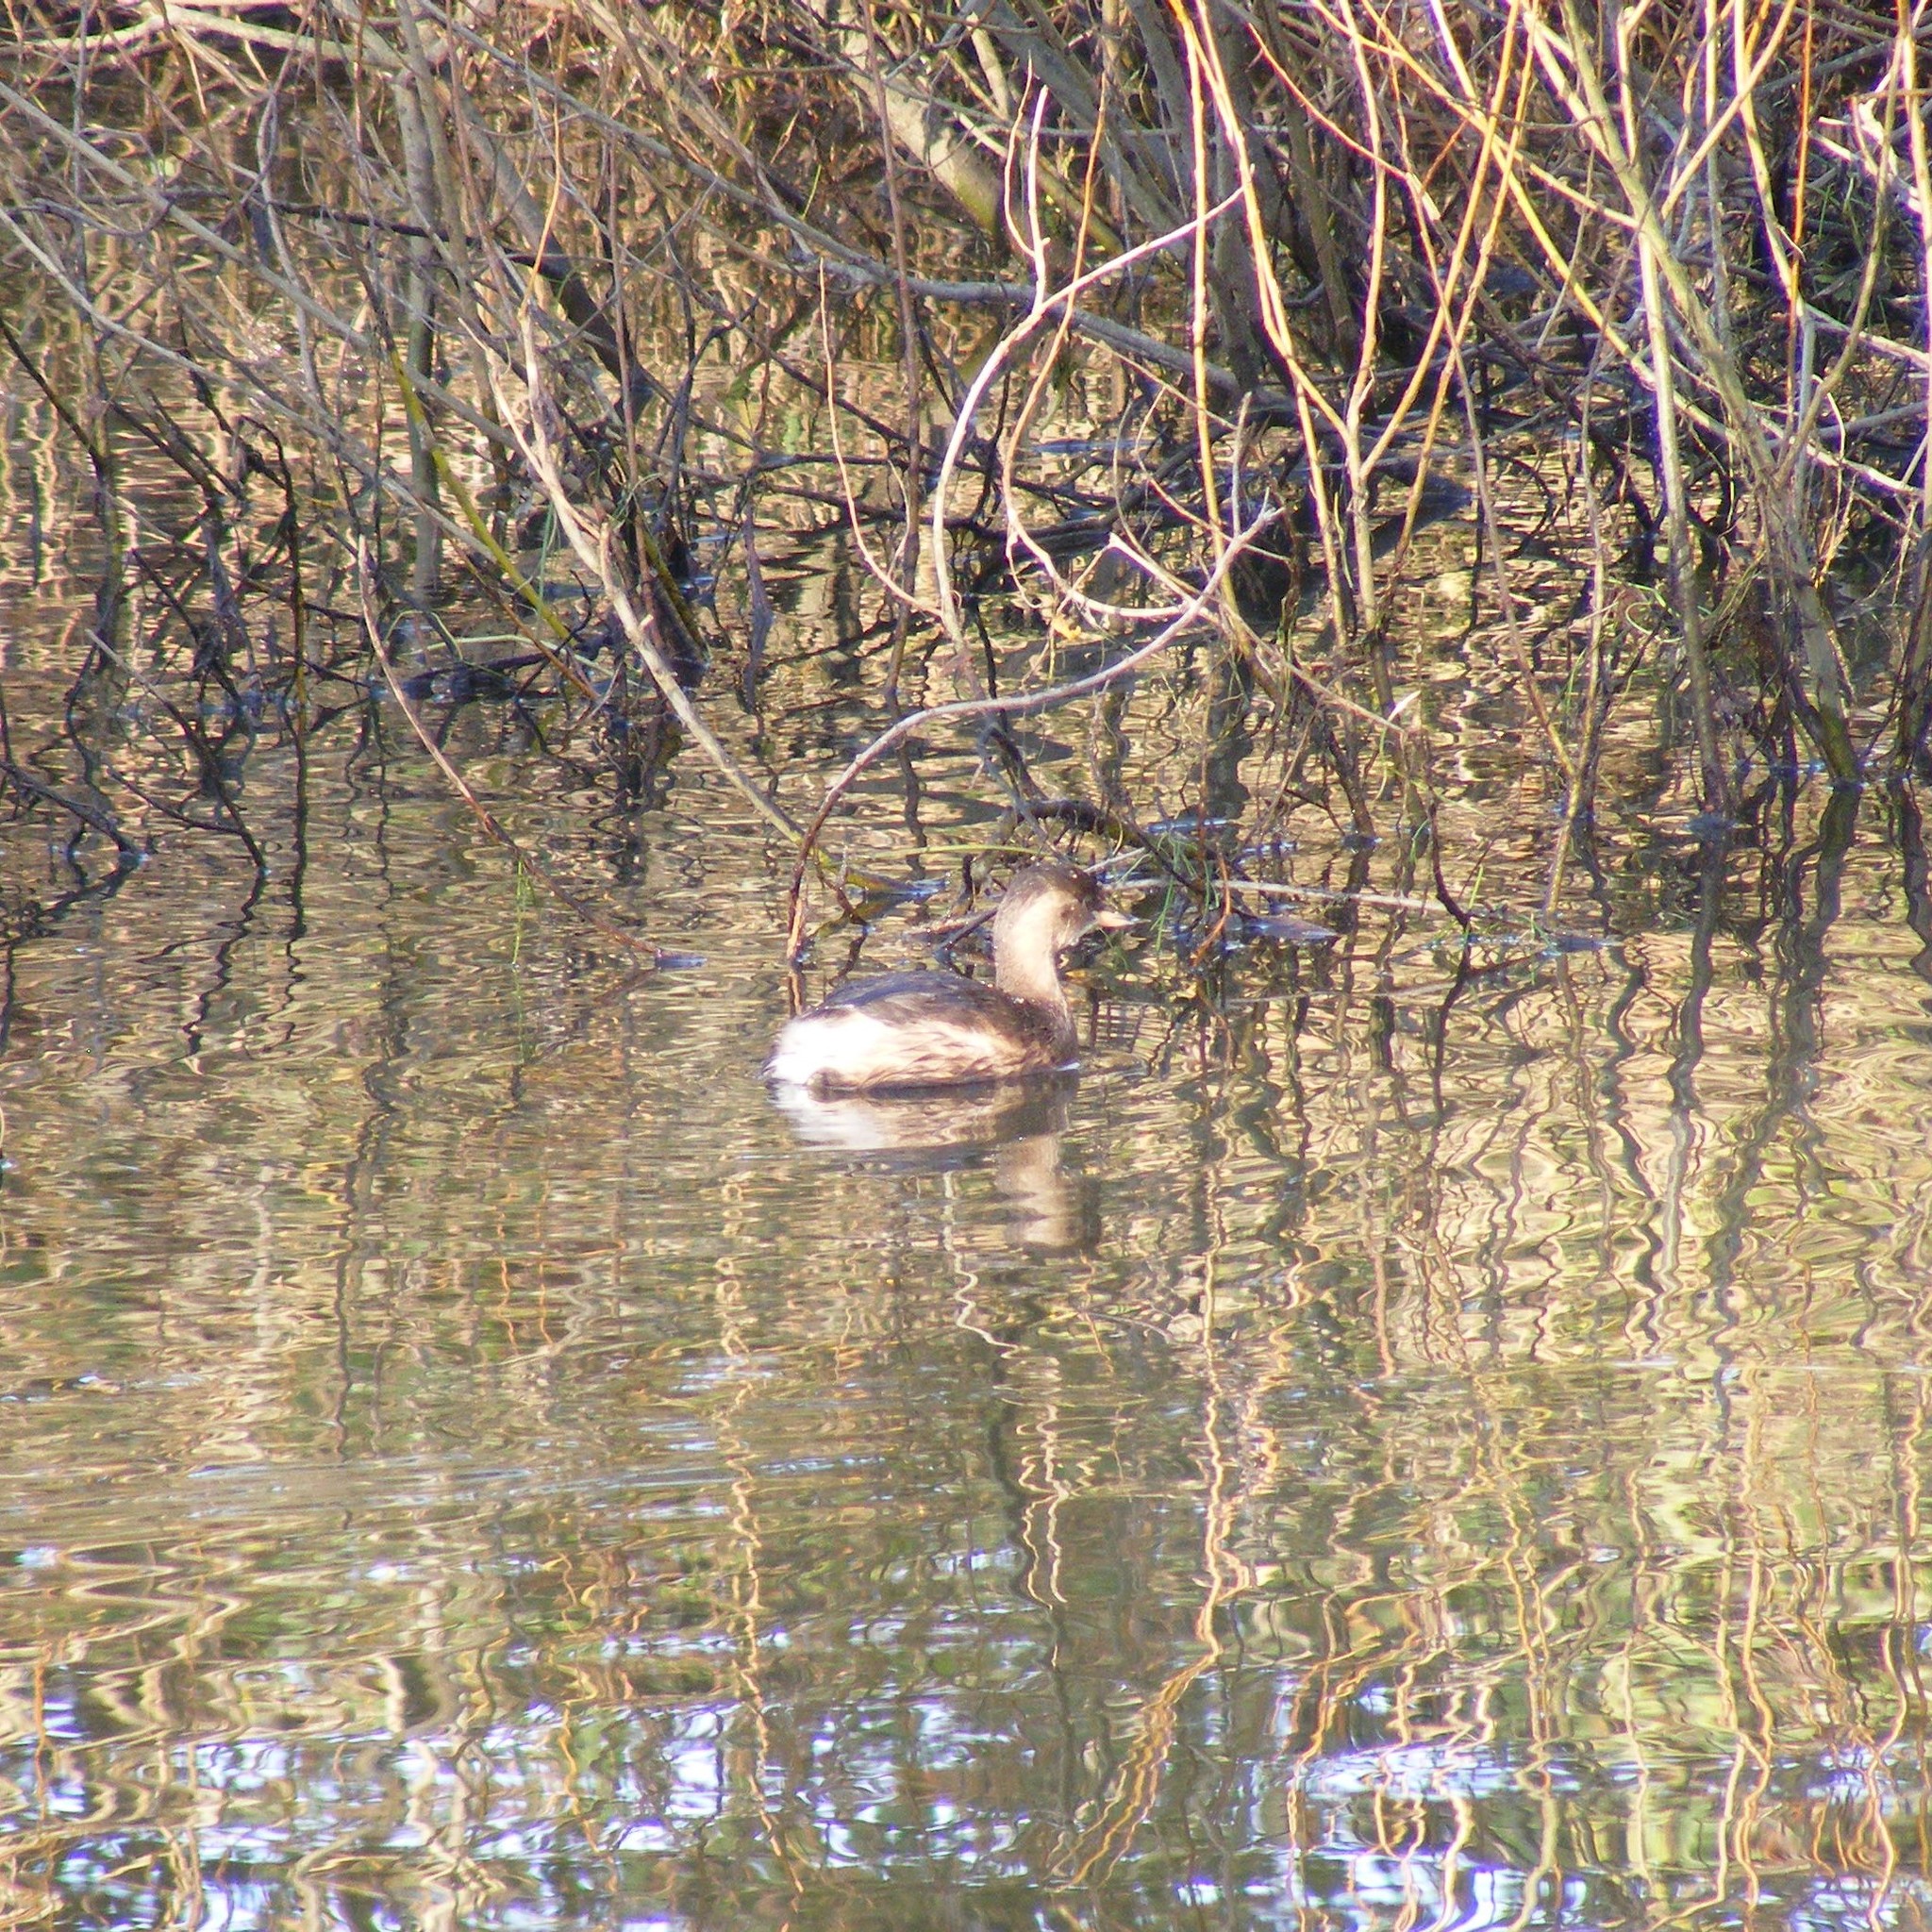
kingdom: Animalia
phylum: Chordata
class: Aves
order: Podicipediformes
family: Podicipedidae
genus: Tachybaptus
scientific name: Tachybaptus ruficollis
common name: Little grebe
